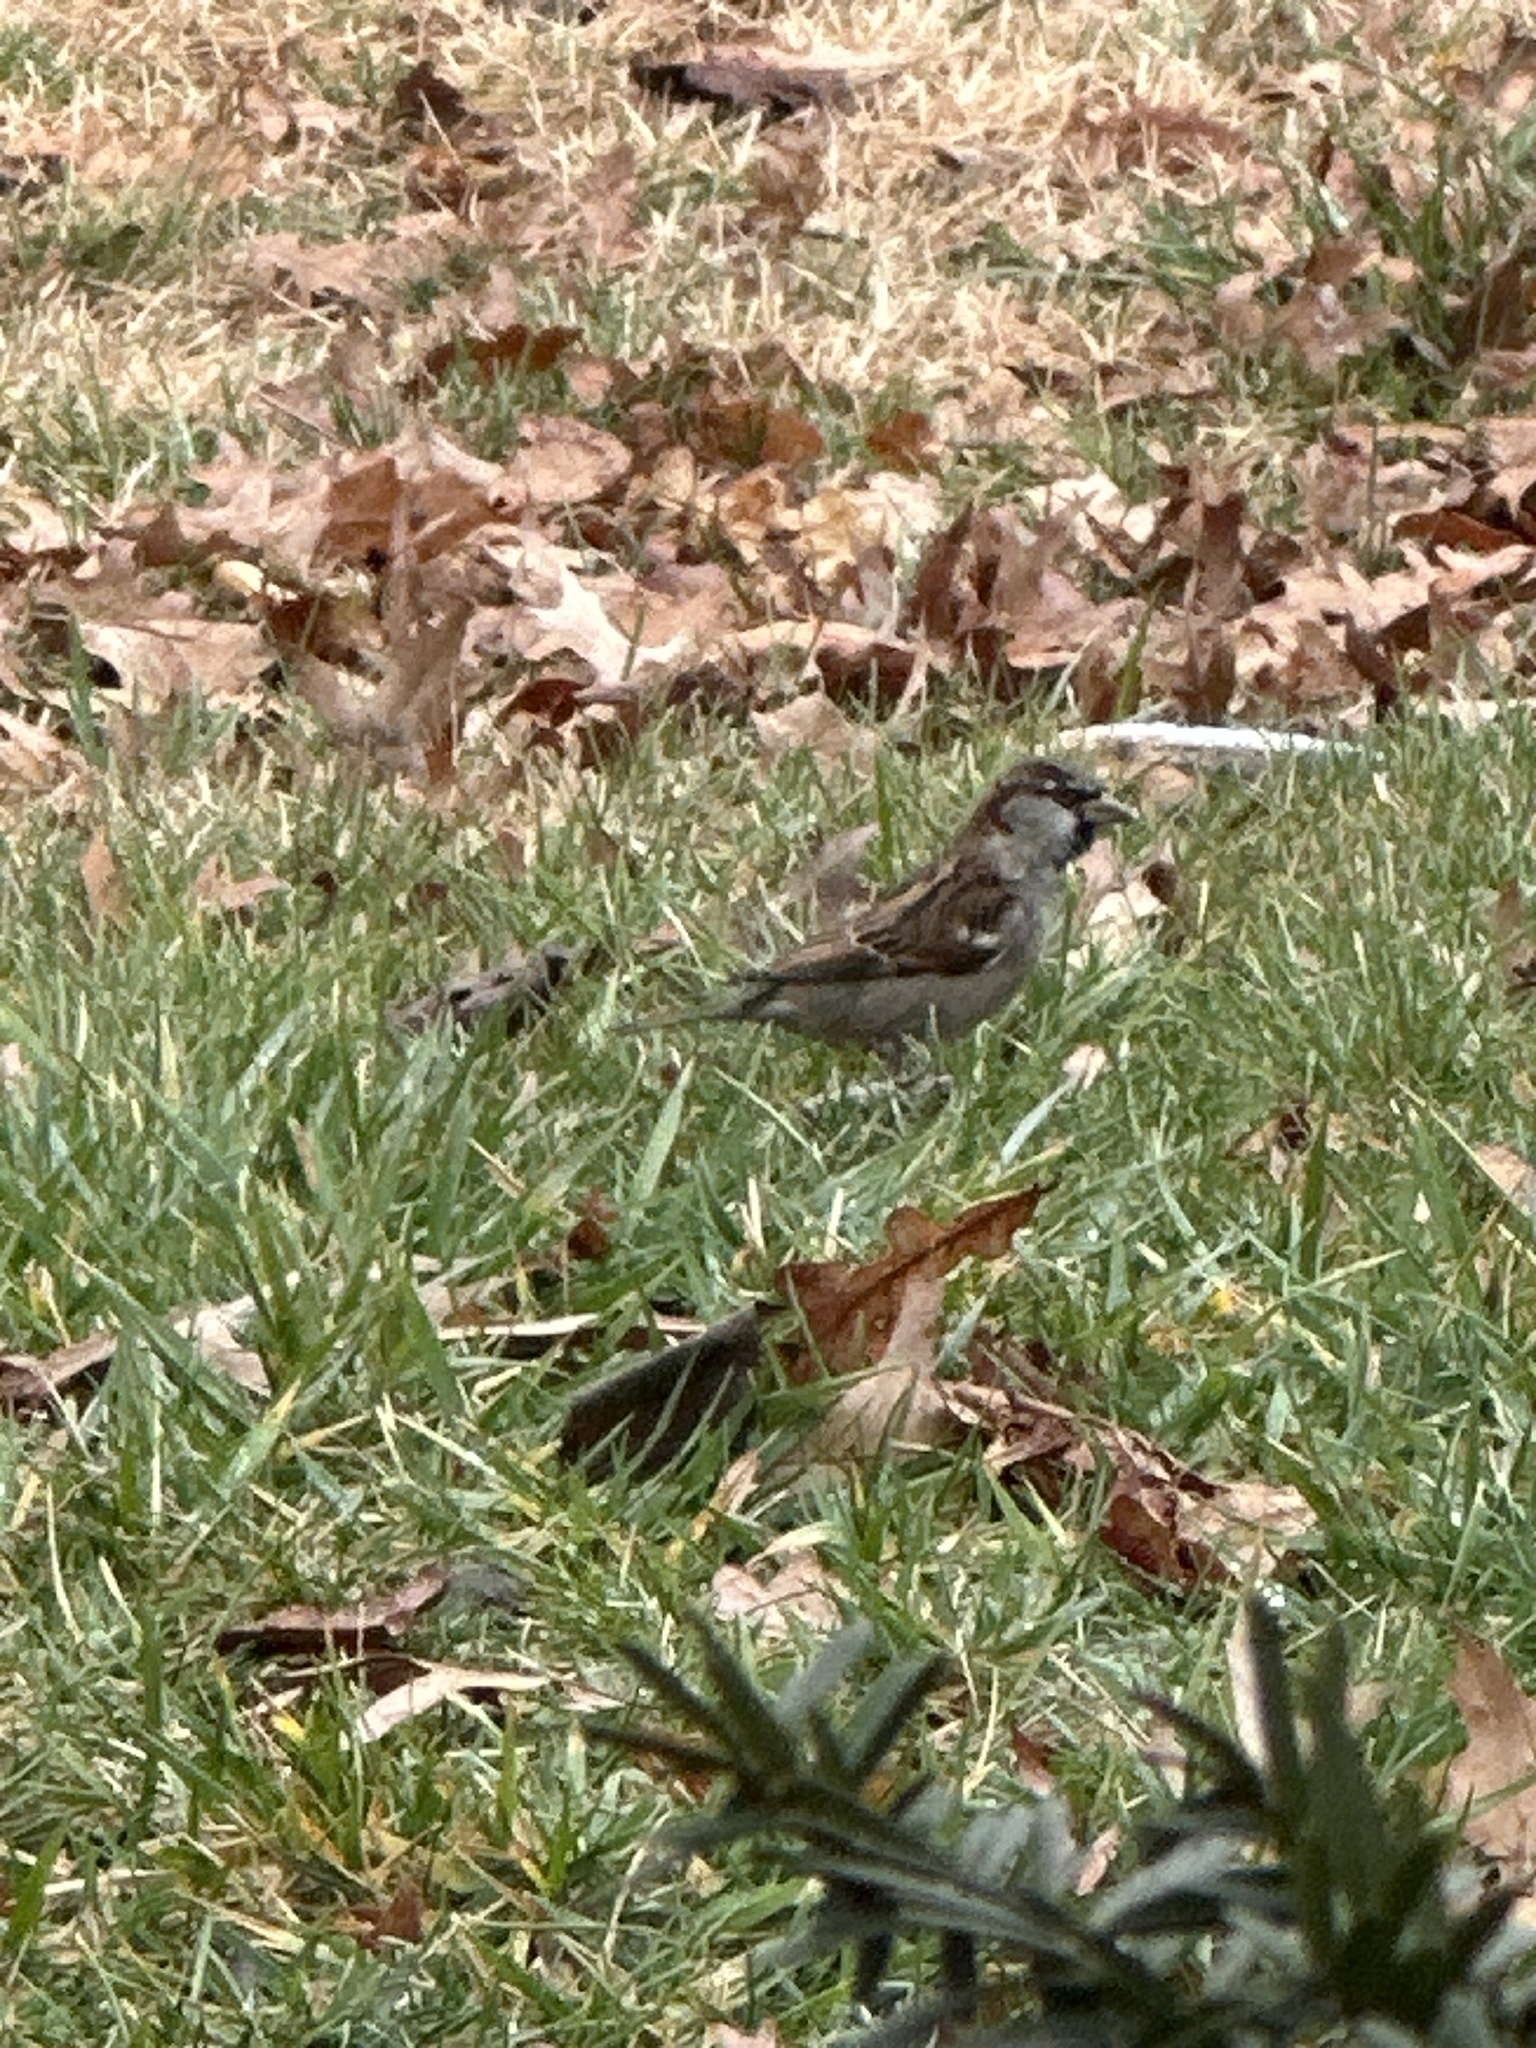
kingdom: Animalia
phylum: Chordata
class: Aves
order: Passeriformes
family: Passeridae
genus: Passer
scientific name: Passer domesticus
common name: House sparrow
